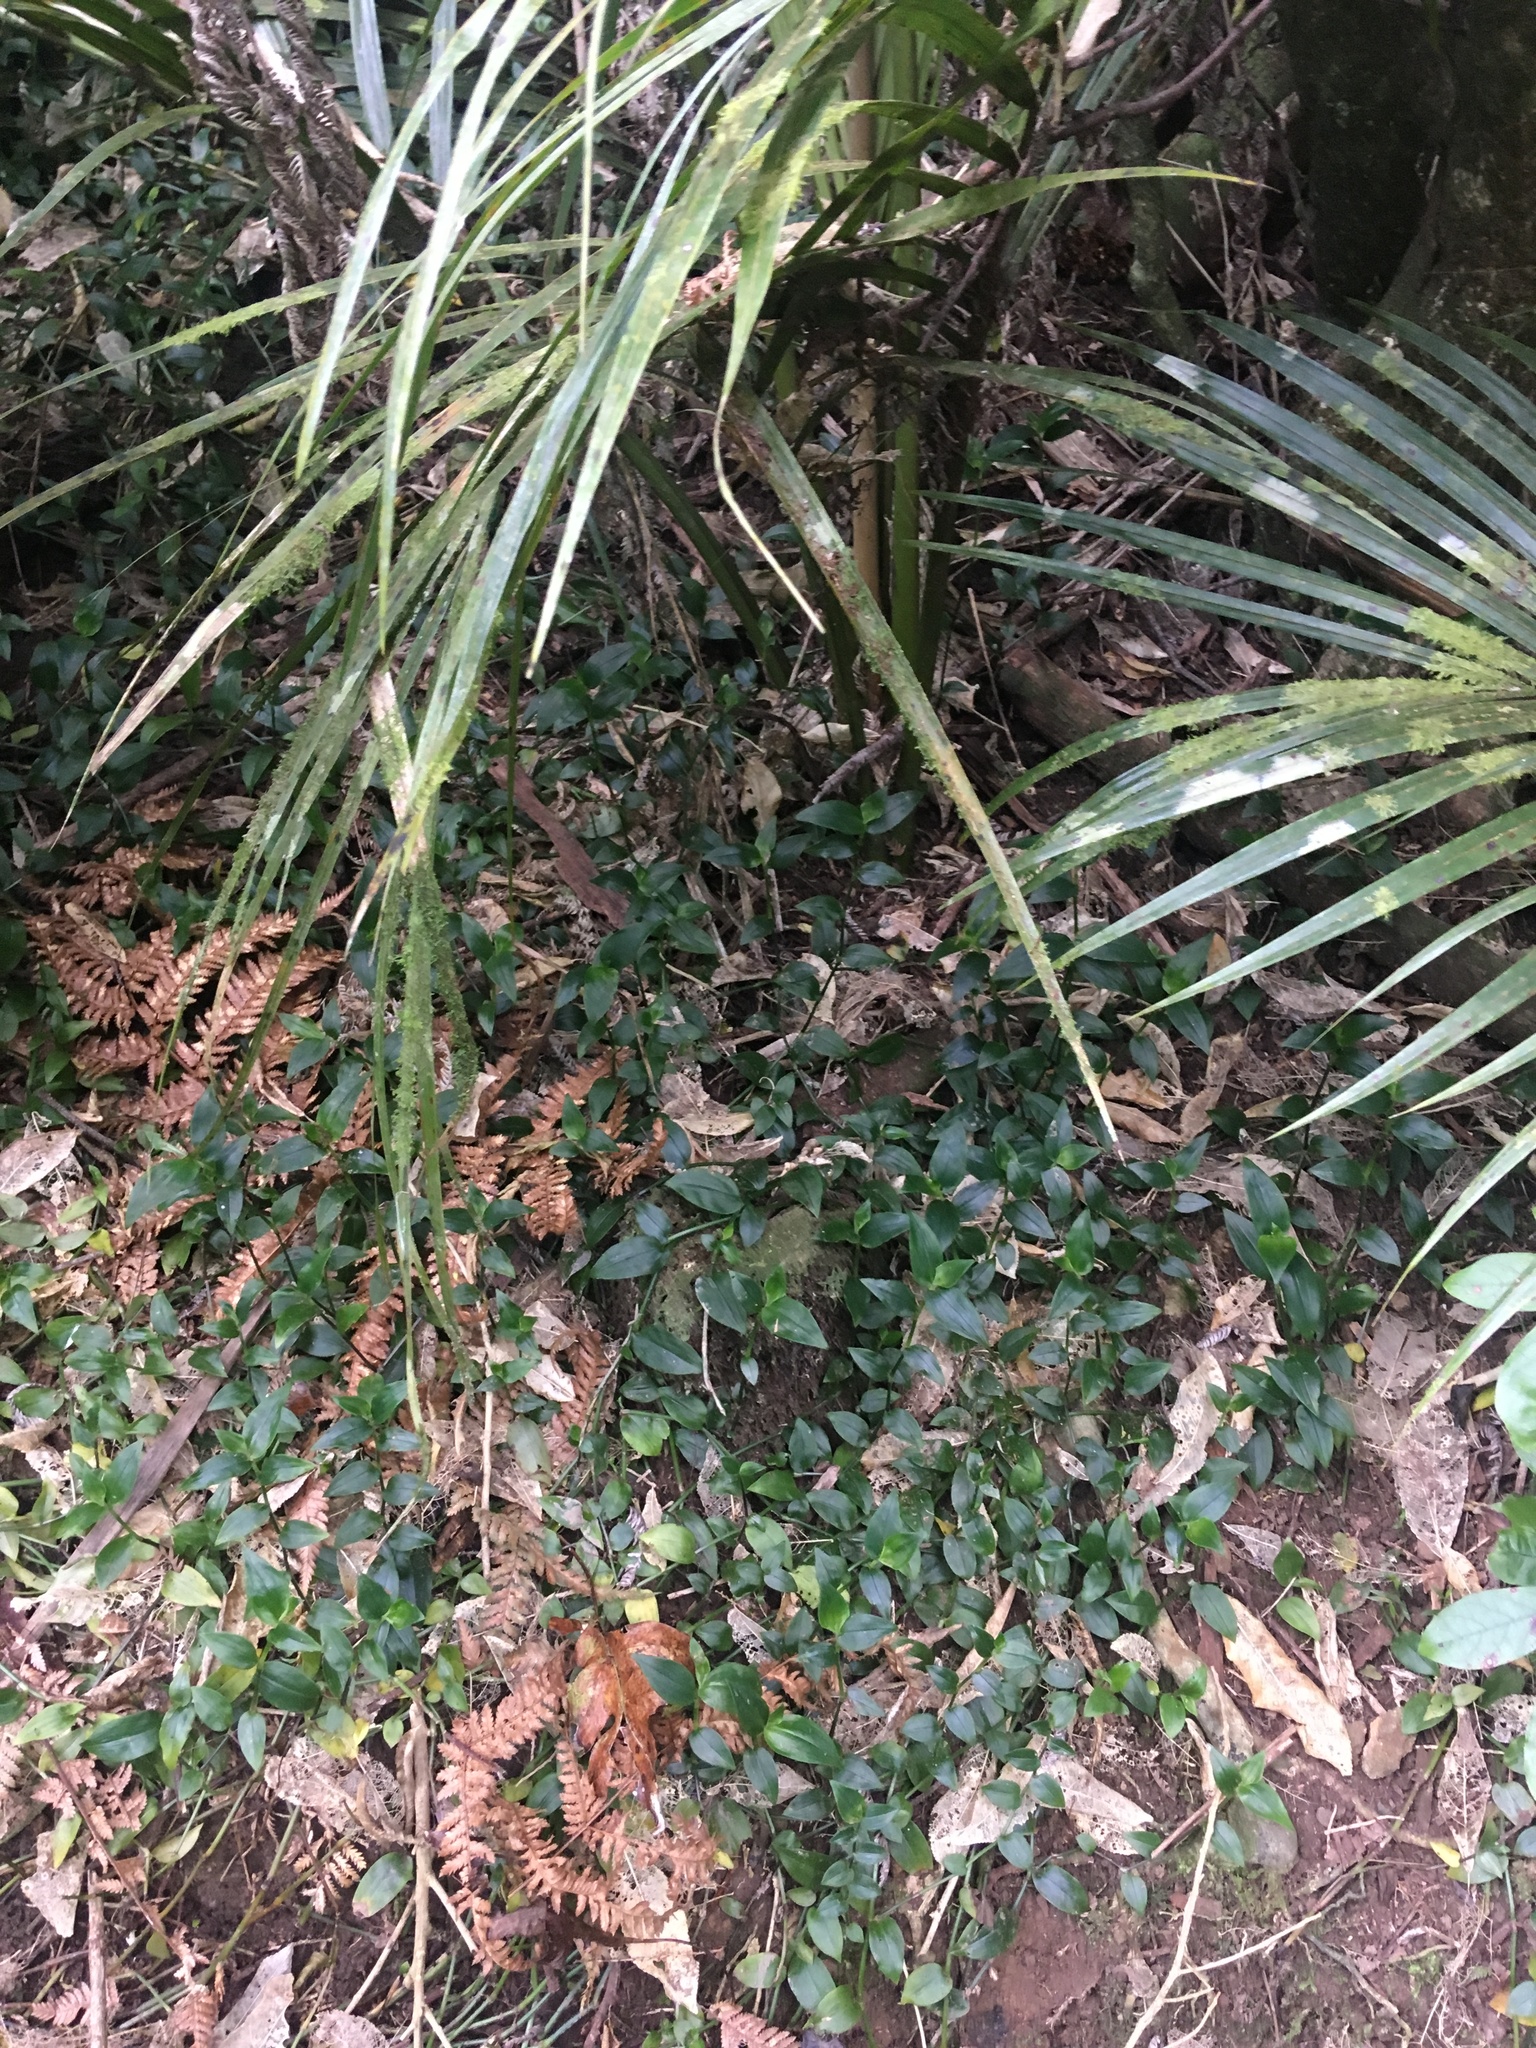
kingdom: Plantae
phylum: Tracheophyta
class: Liliopsida
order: Commelinales
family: Commelinaceae
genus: Tradescantia
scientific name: Tradescantia fluminensis
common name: Wandering-jew
